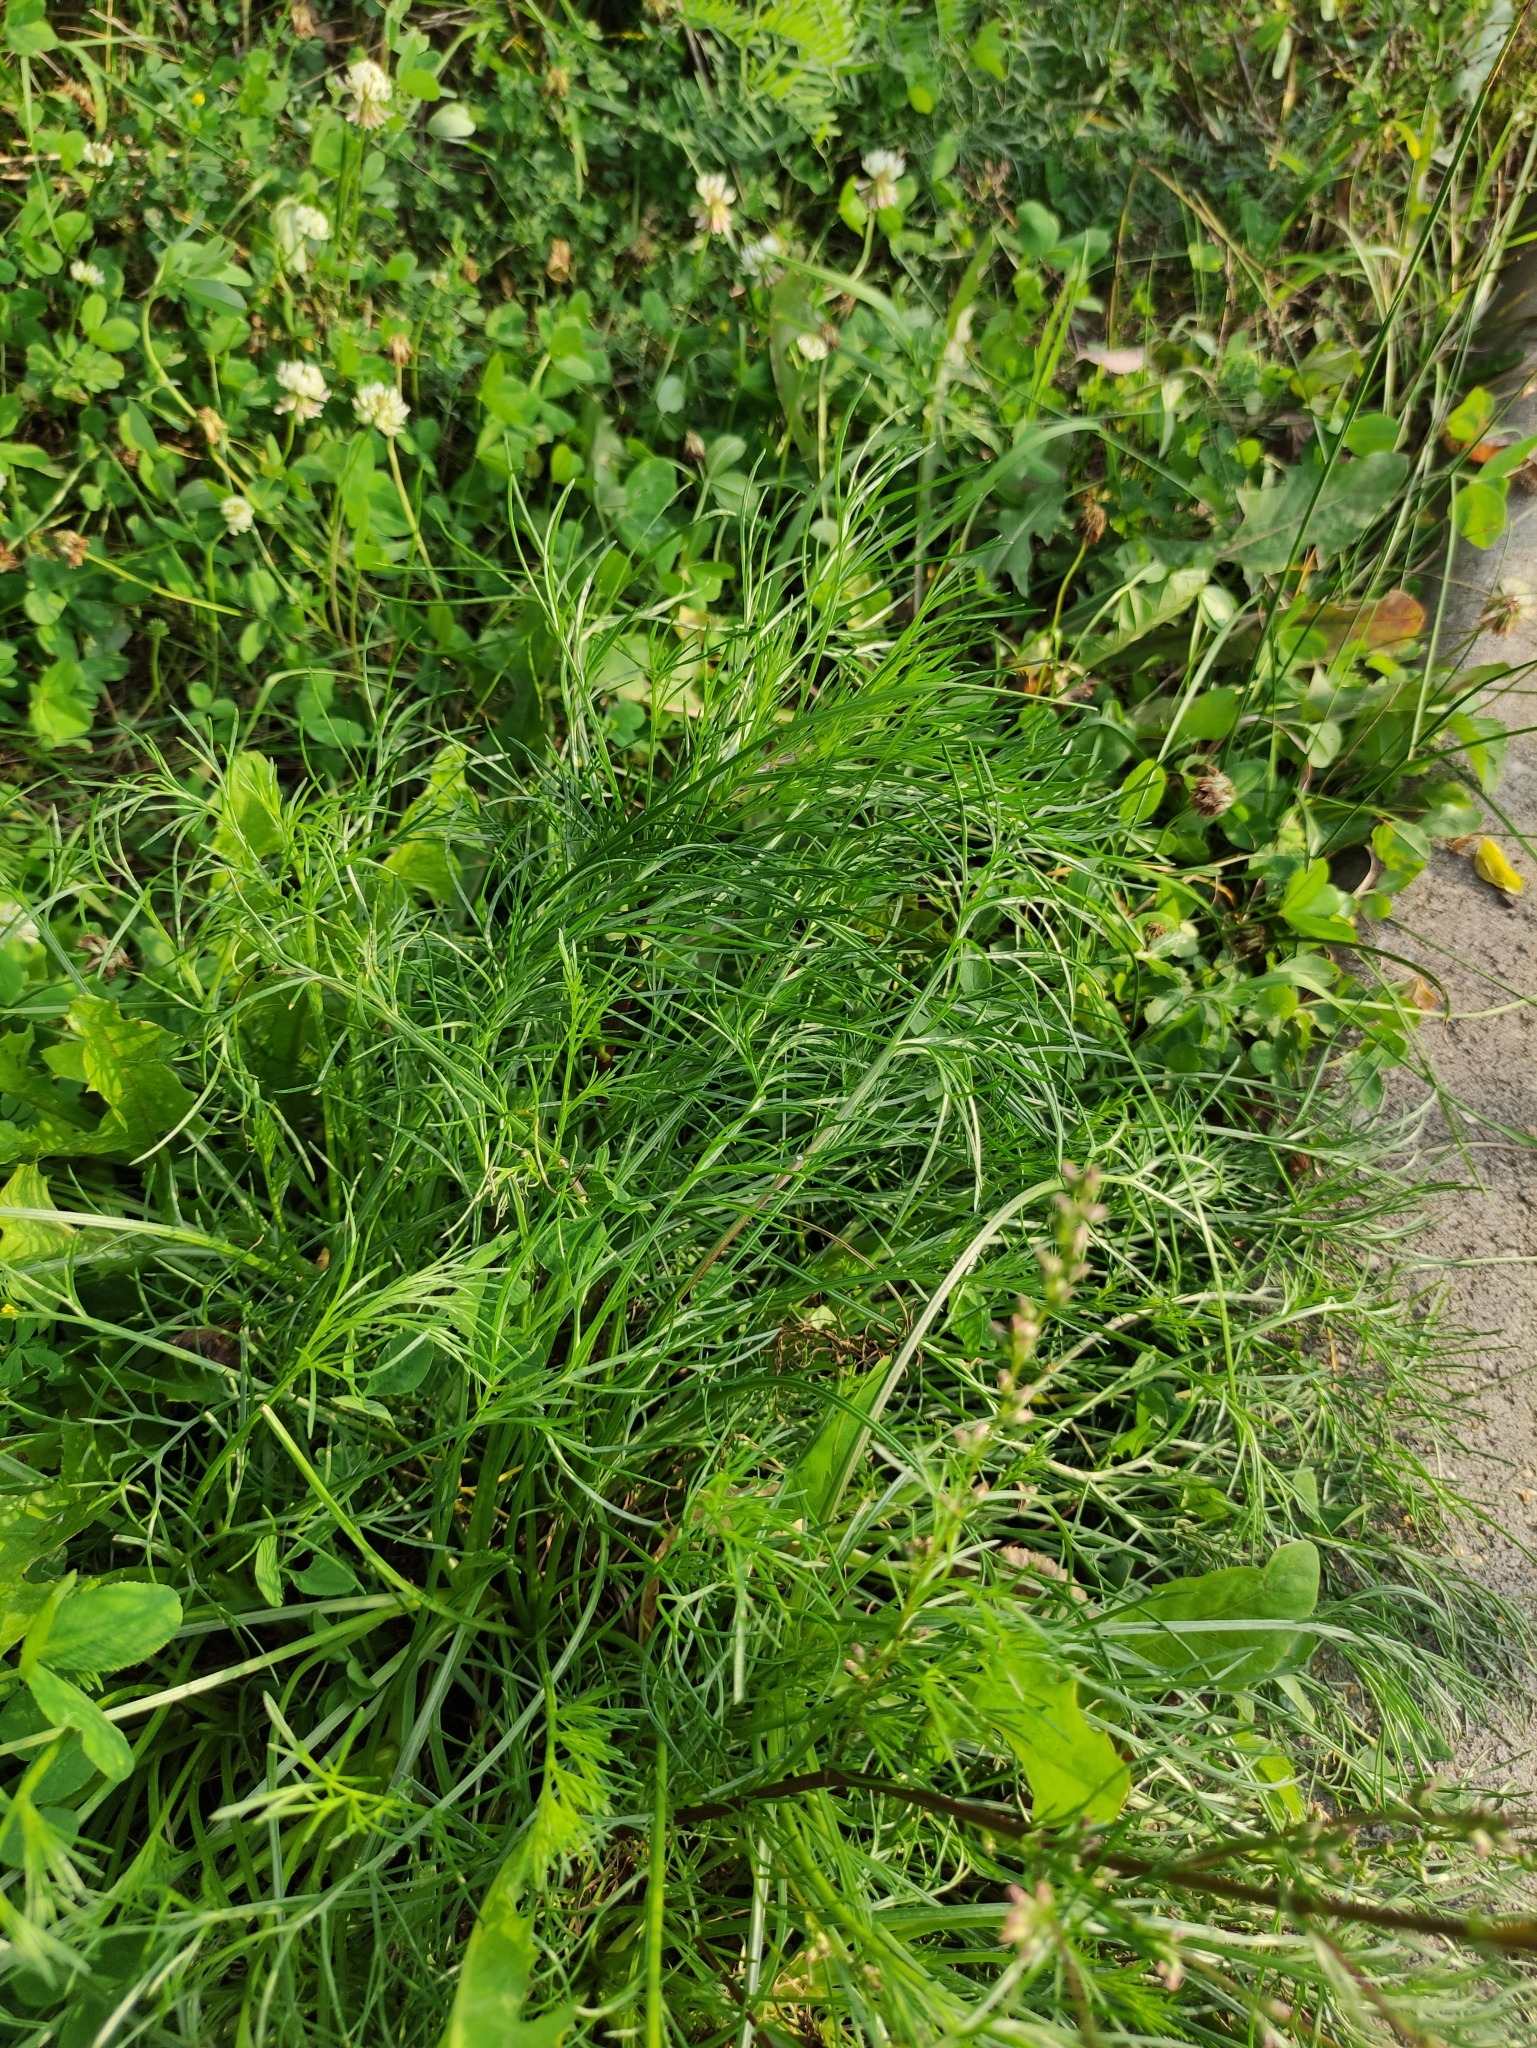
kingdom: Plantae
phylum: Tracheophyta
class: Magnoliopsida
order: Asterales
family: Asteraceae
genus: Artemisia
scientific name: Artemisia campestris
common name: Field wormwood
